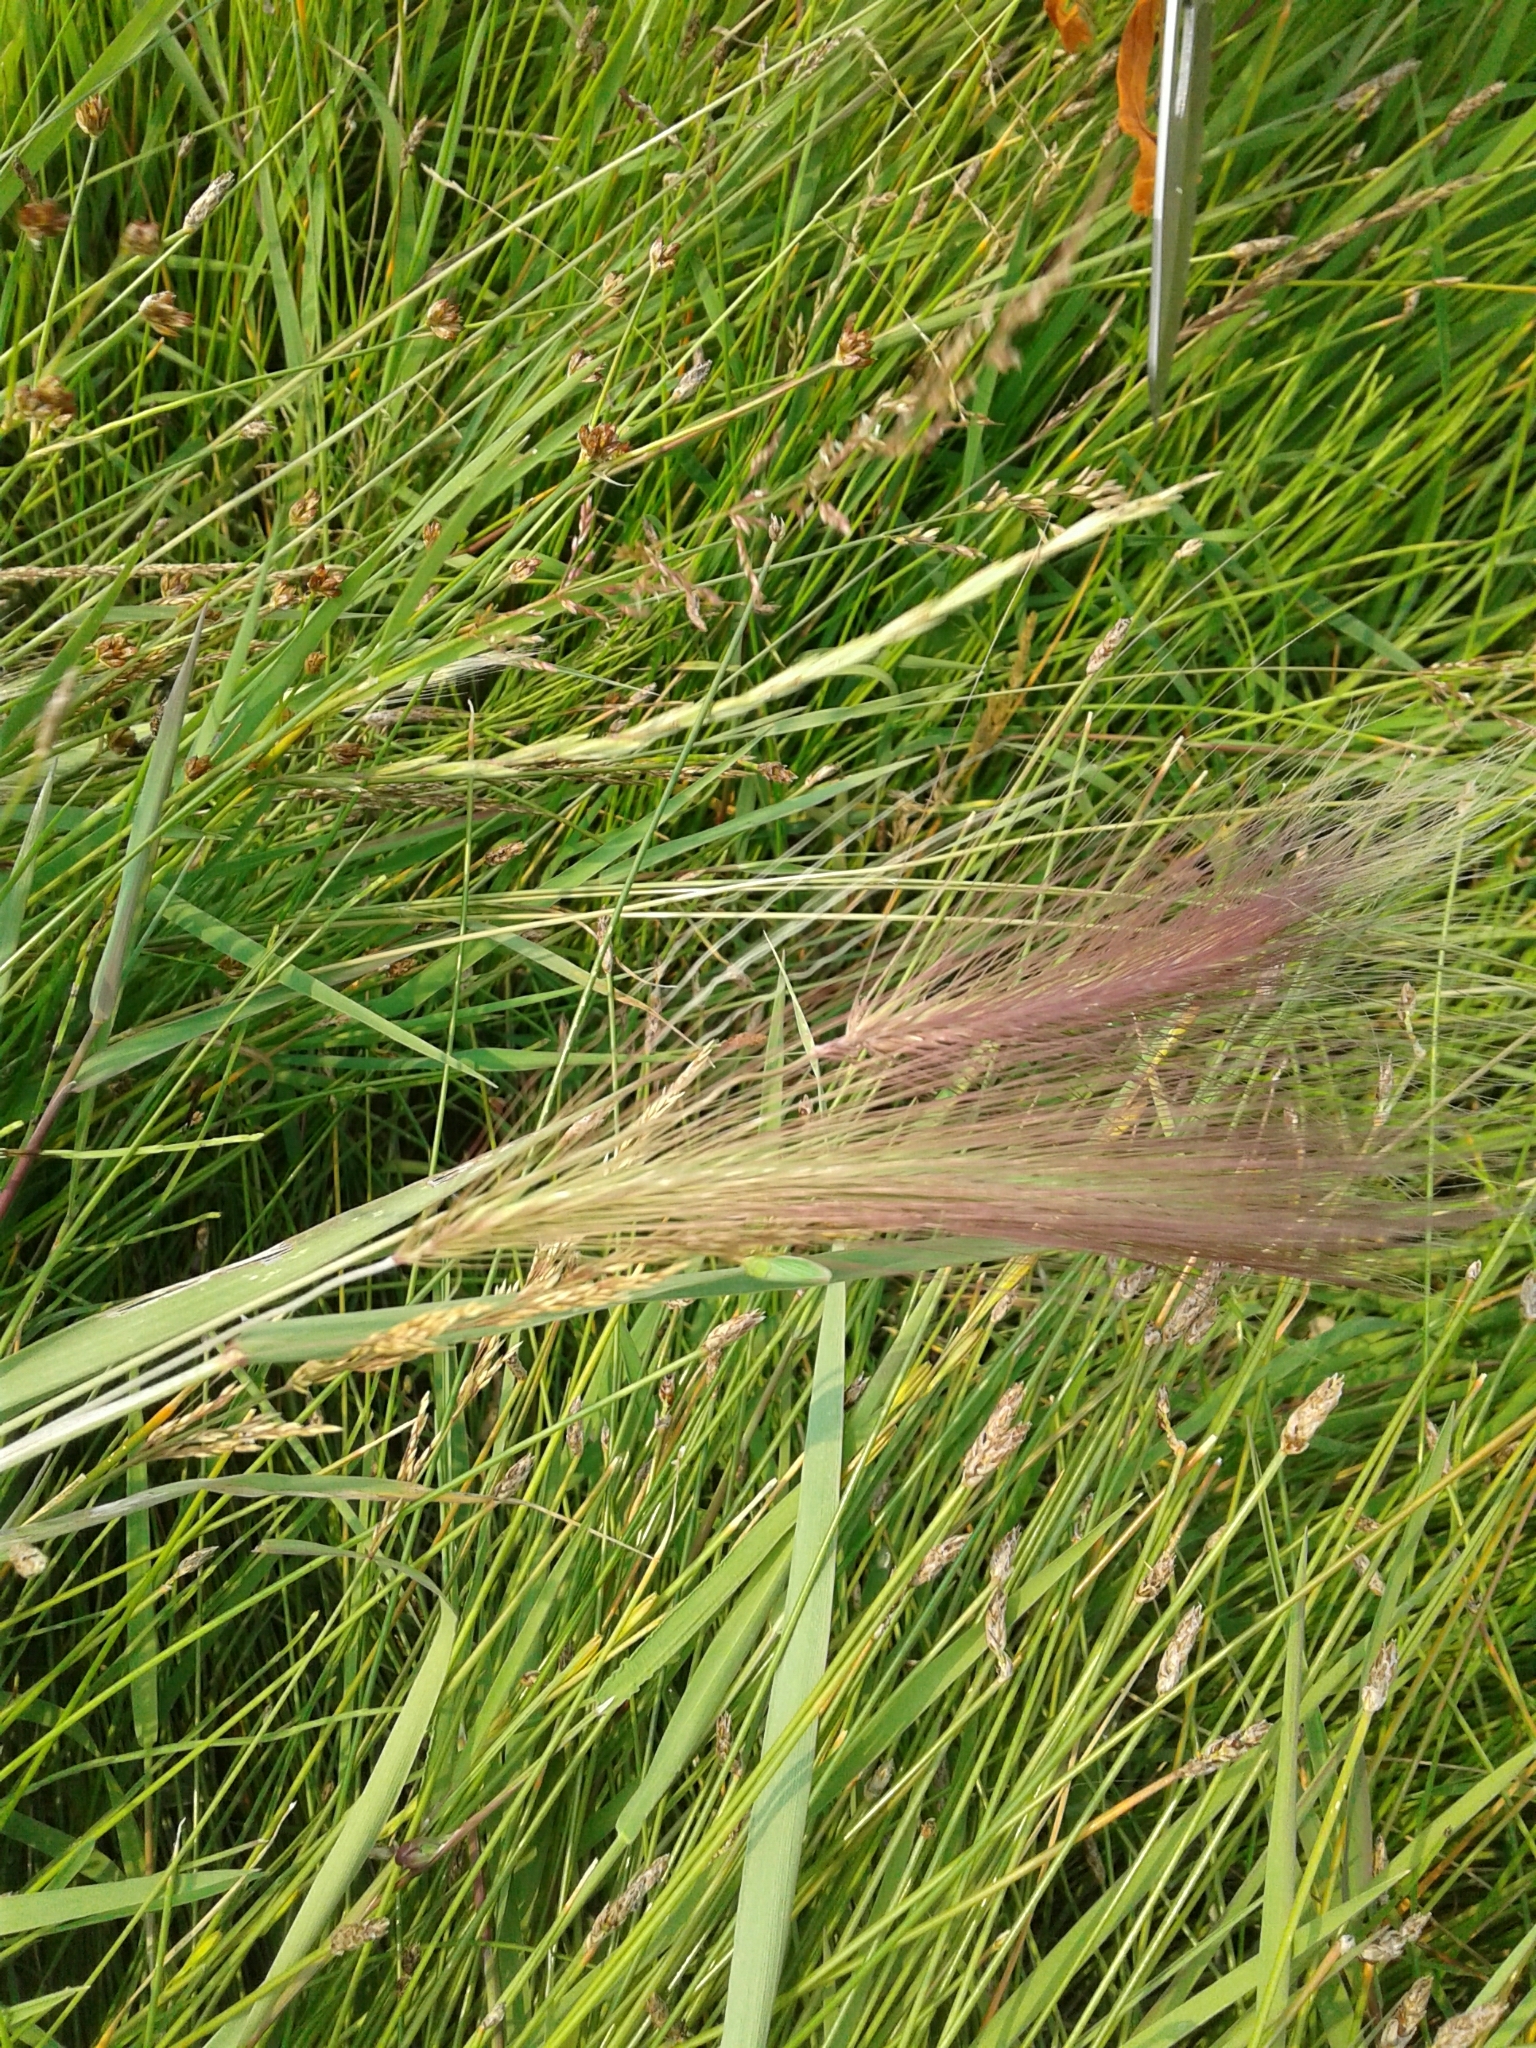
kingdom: Plantae
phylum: Tracheophyta
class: Liliopsida
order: Poales
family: Poaceae
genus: Hordeum
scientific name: Hordeum jubatum
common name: Foxtail barley
